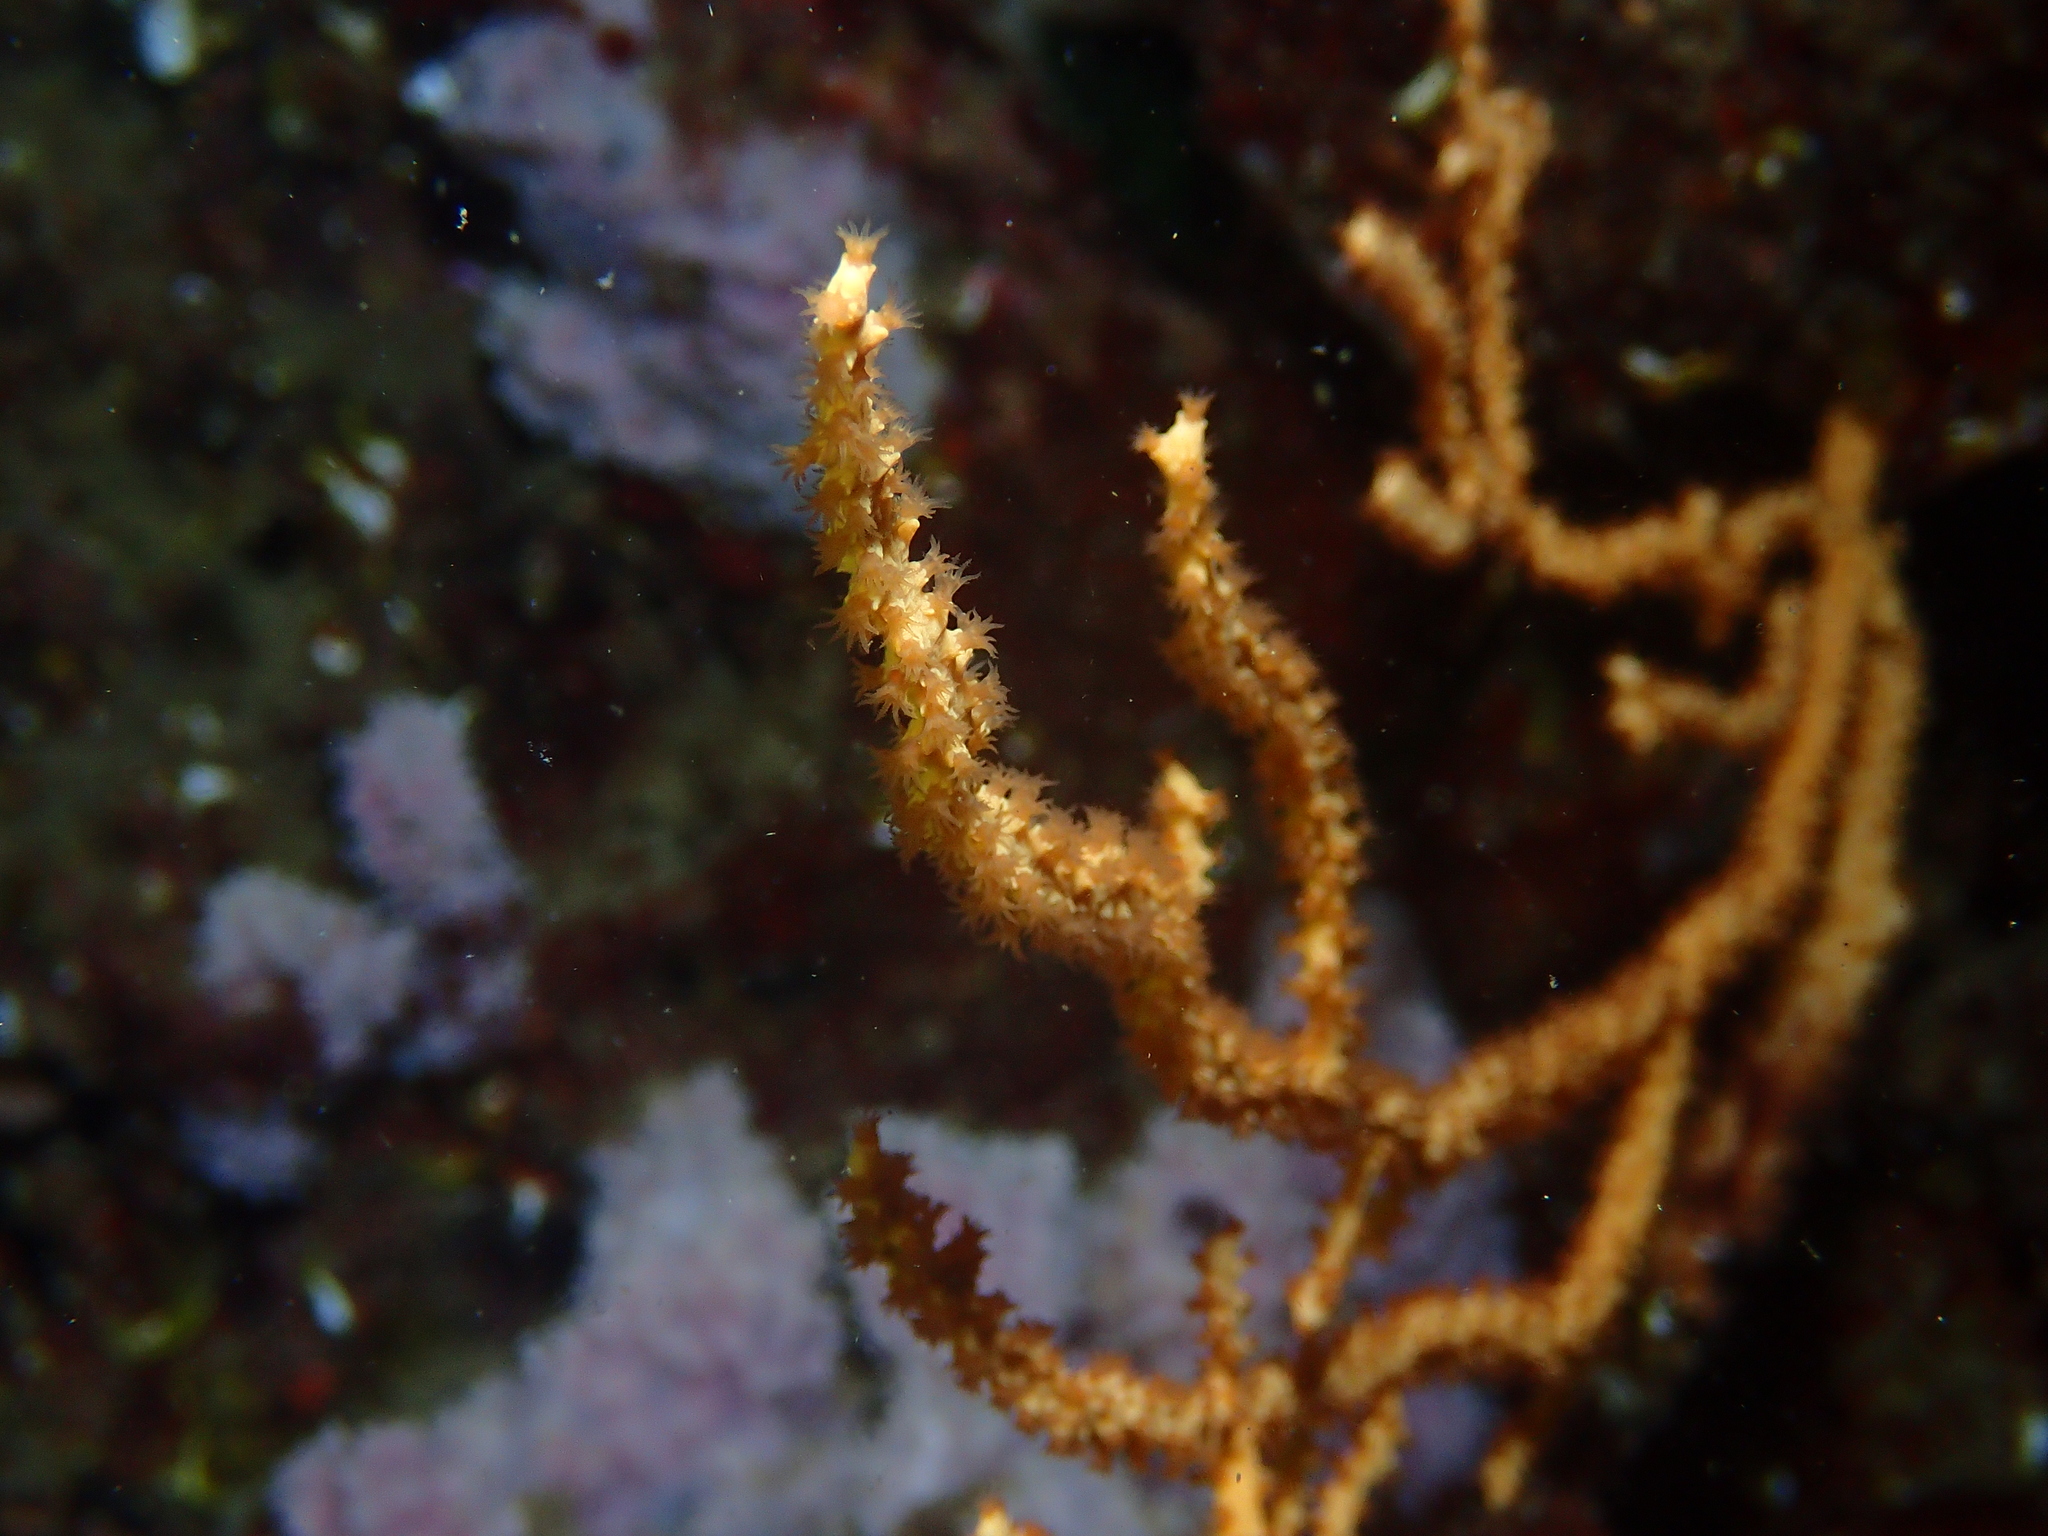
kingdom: Animalia
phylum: Cnidaria
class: Anthozoa
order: Malacalcyonacea
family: Eunicellidae
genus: Eunicella
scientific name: Eunicella cavolini
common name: Yellow gorgonian
